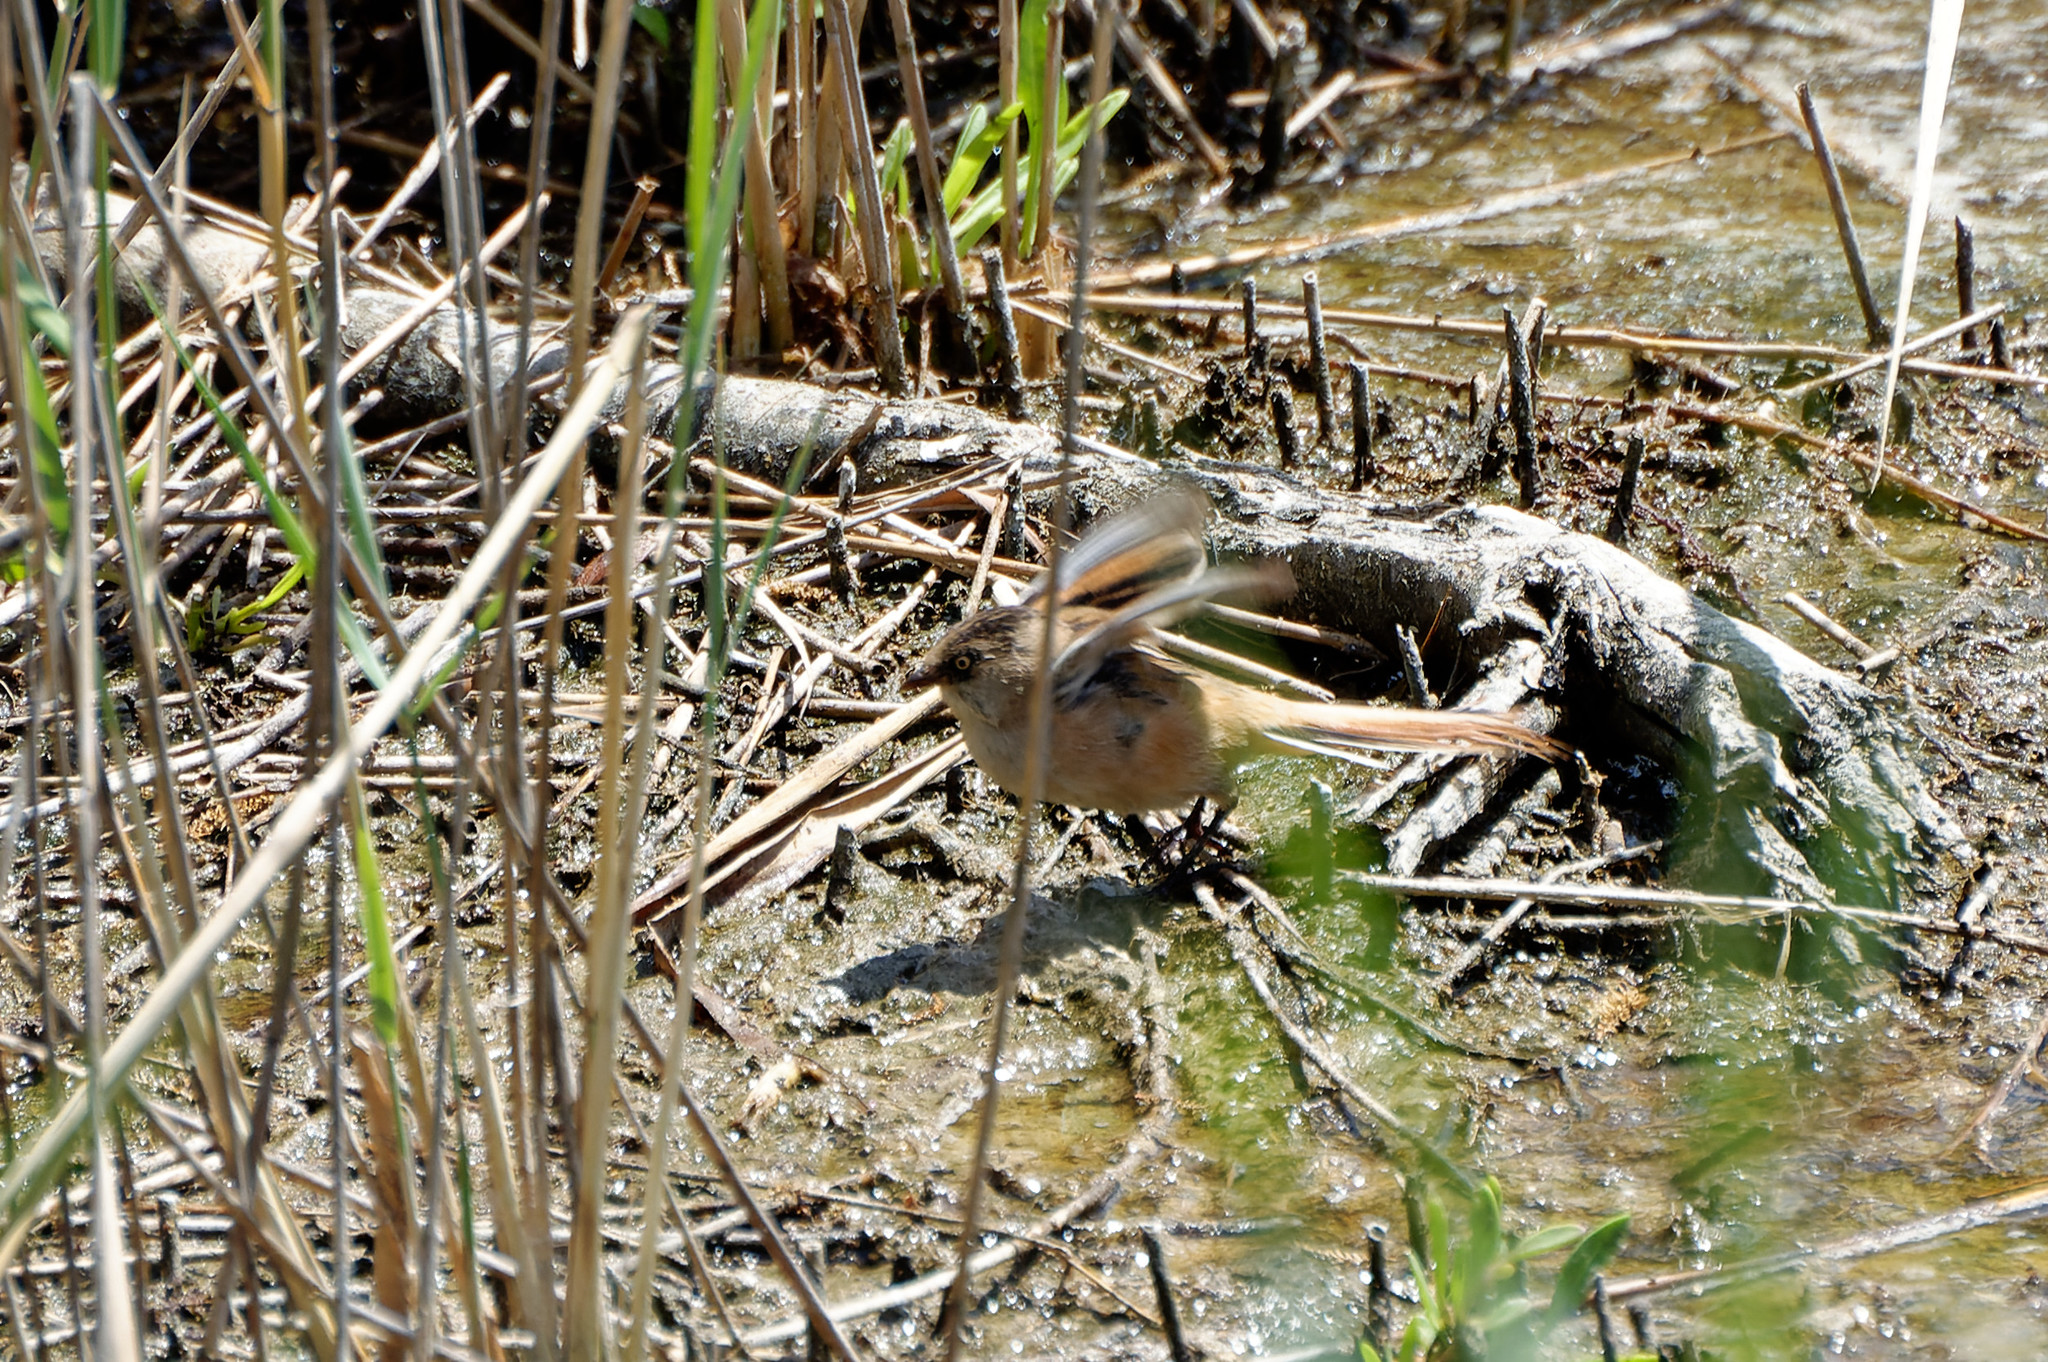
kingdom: Animalia
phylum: Chordata
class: Aves
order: Passeriformes
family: Panuridae
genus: Panurus
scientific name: Panurus biarmicus
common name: Bearded reedling
